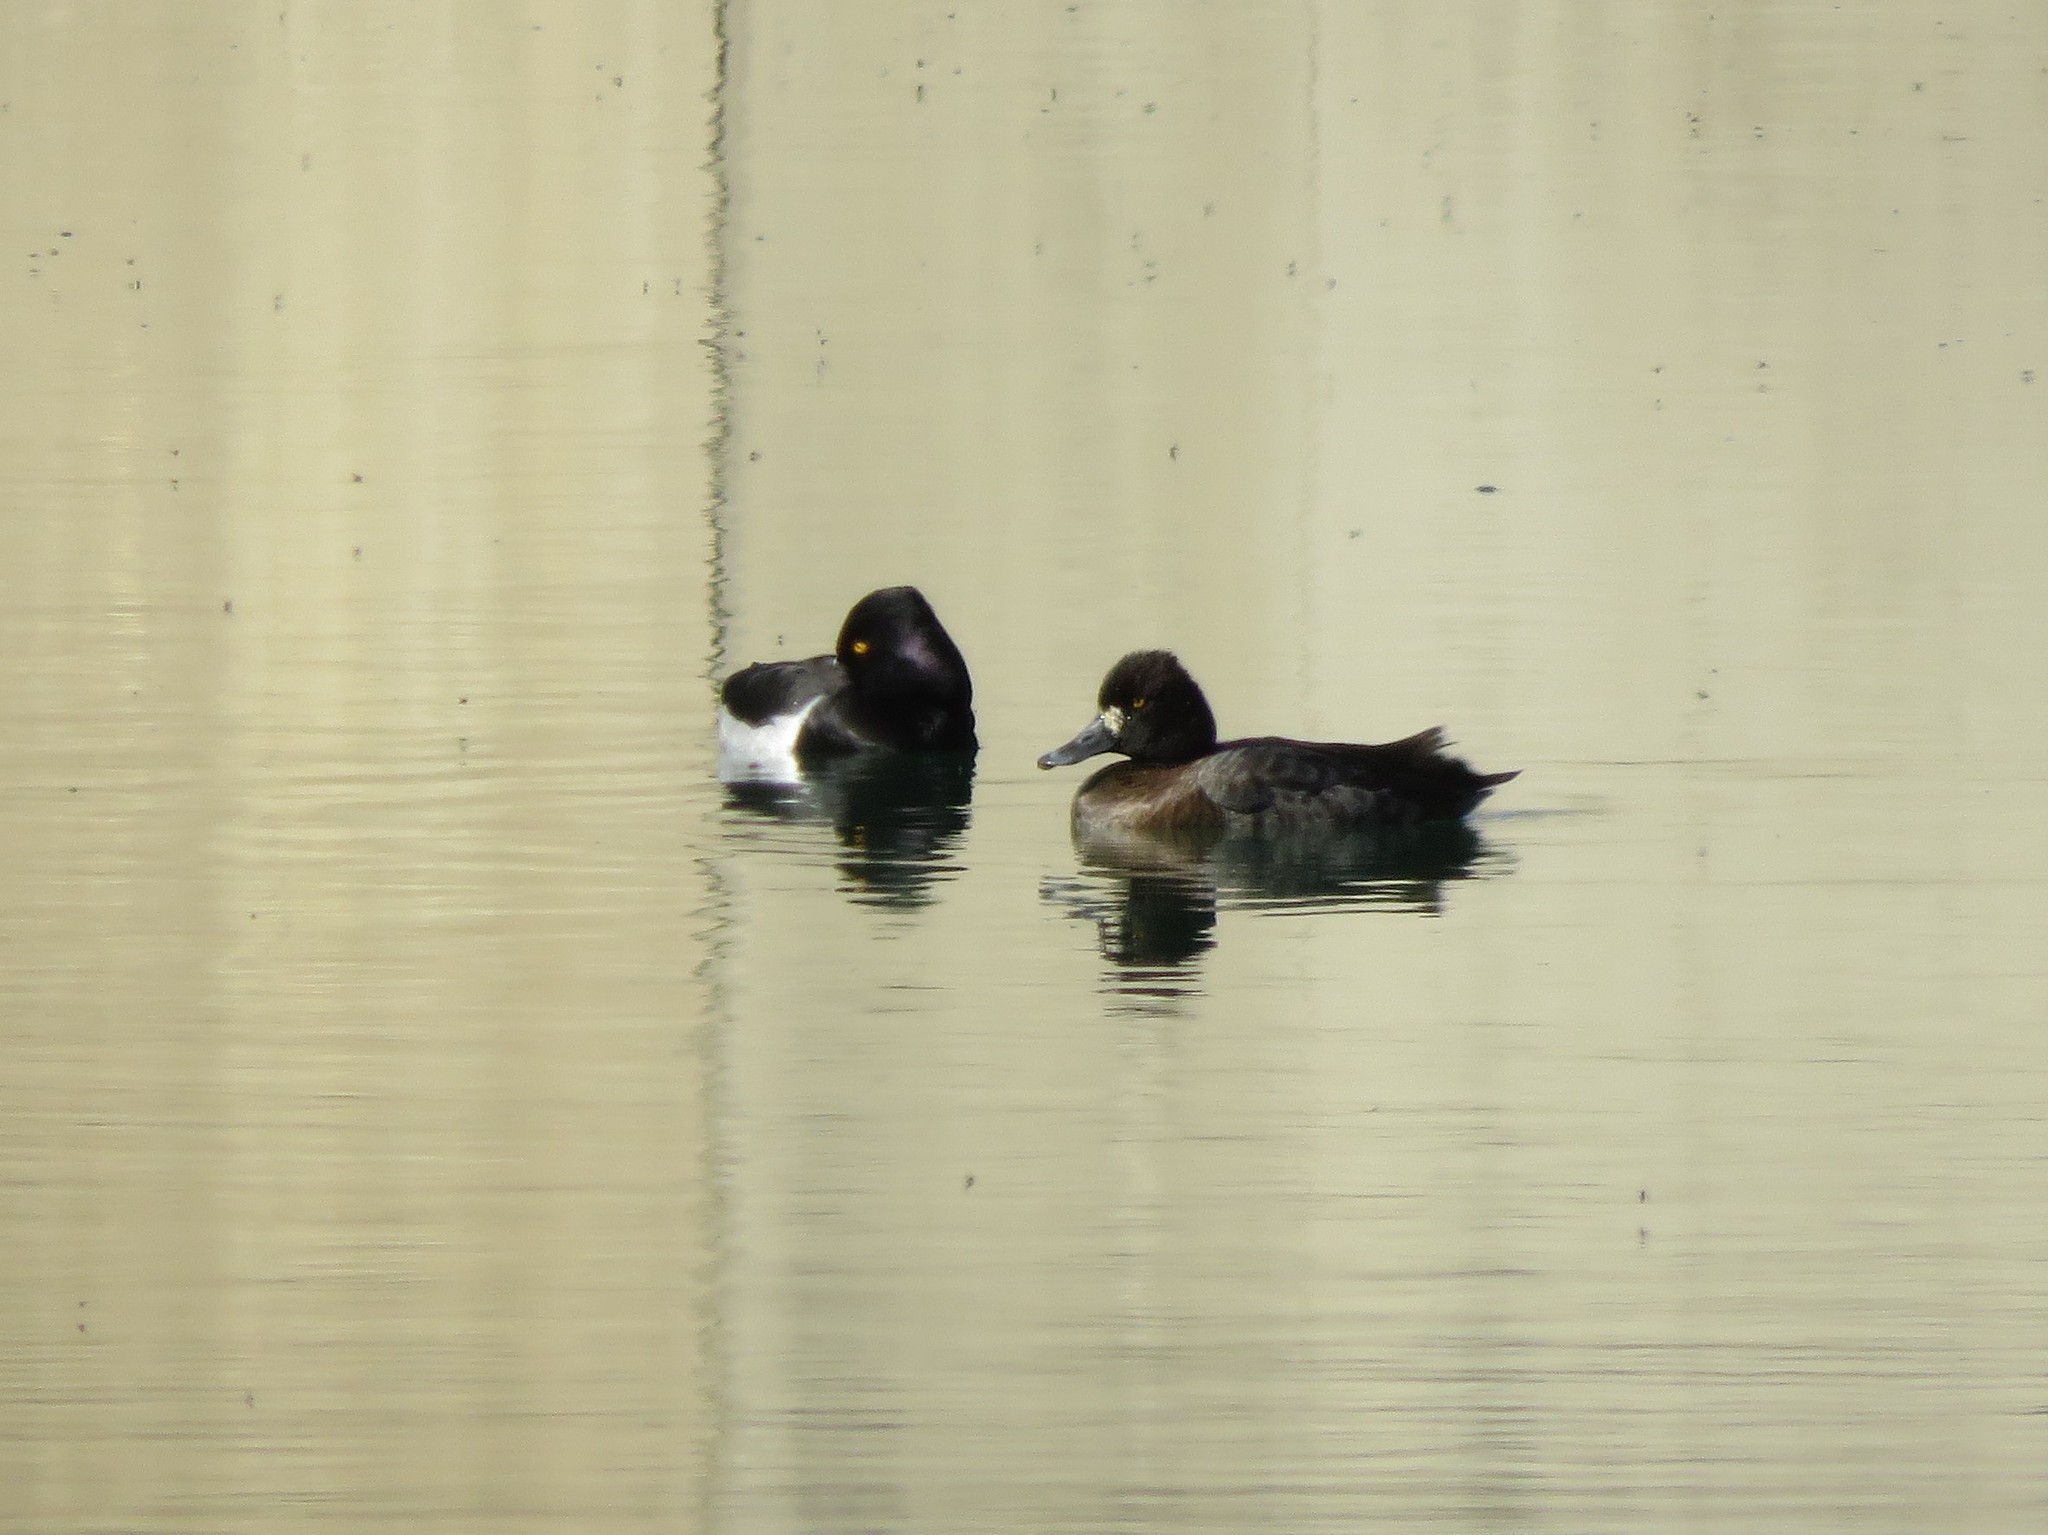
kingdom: Animalia
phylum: Chordata
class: Aves
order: Anseriformes
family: Anatidae
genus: Aythya
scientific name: Aythya affinis
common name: Lesser scaup
